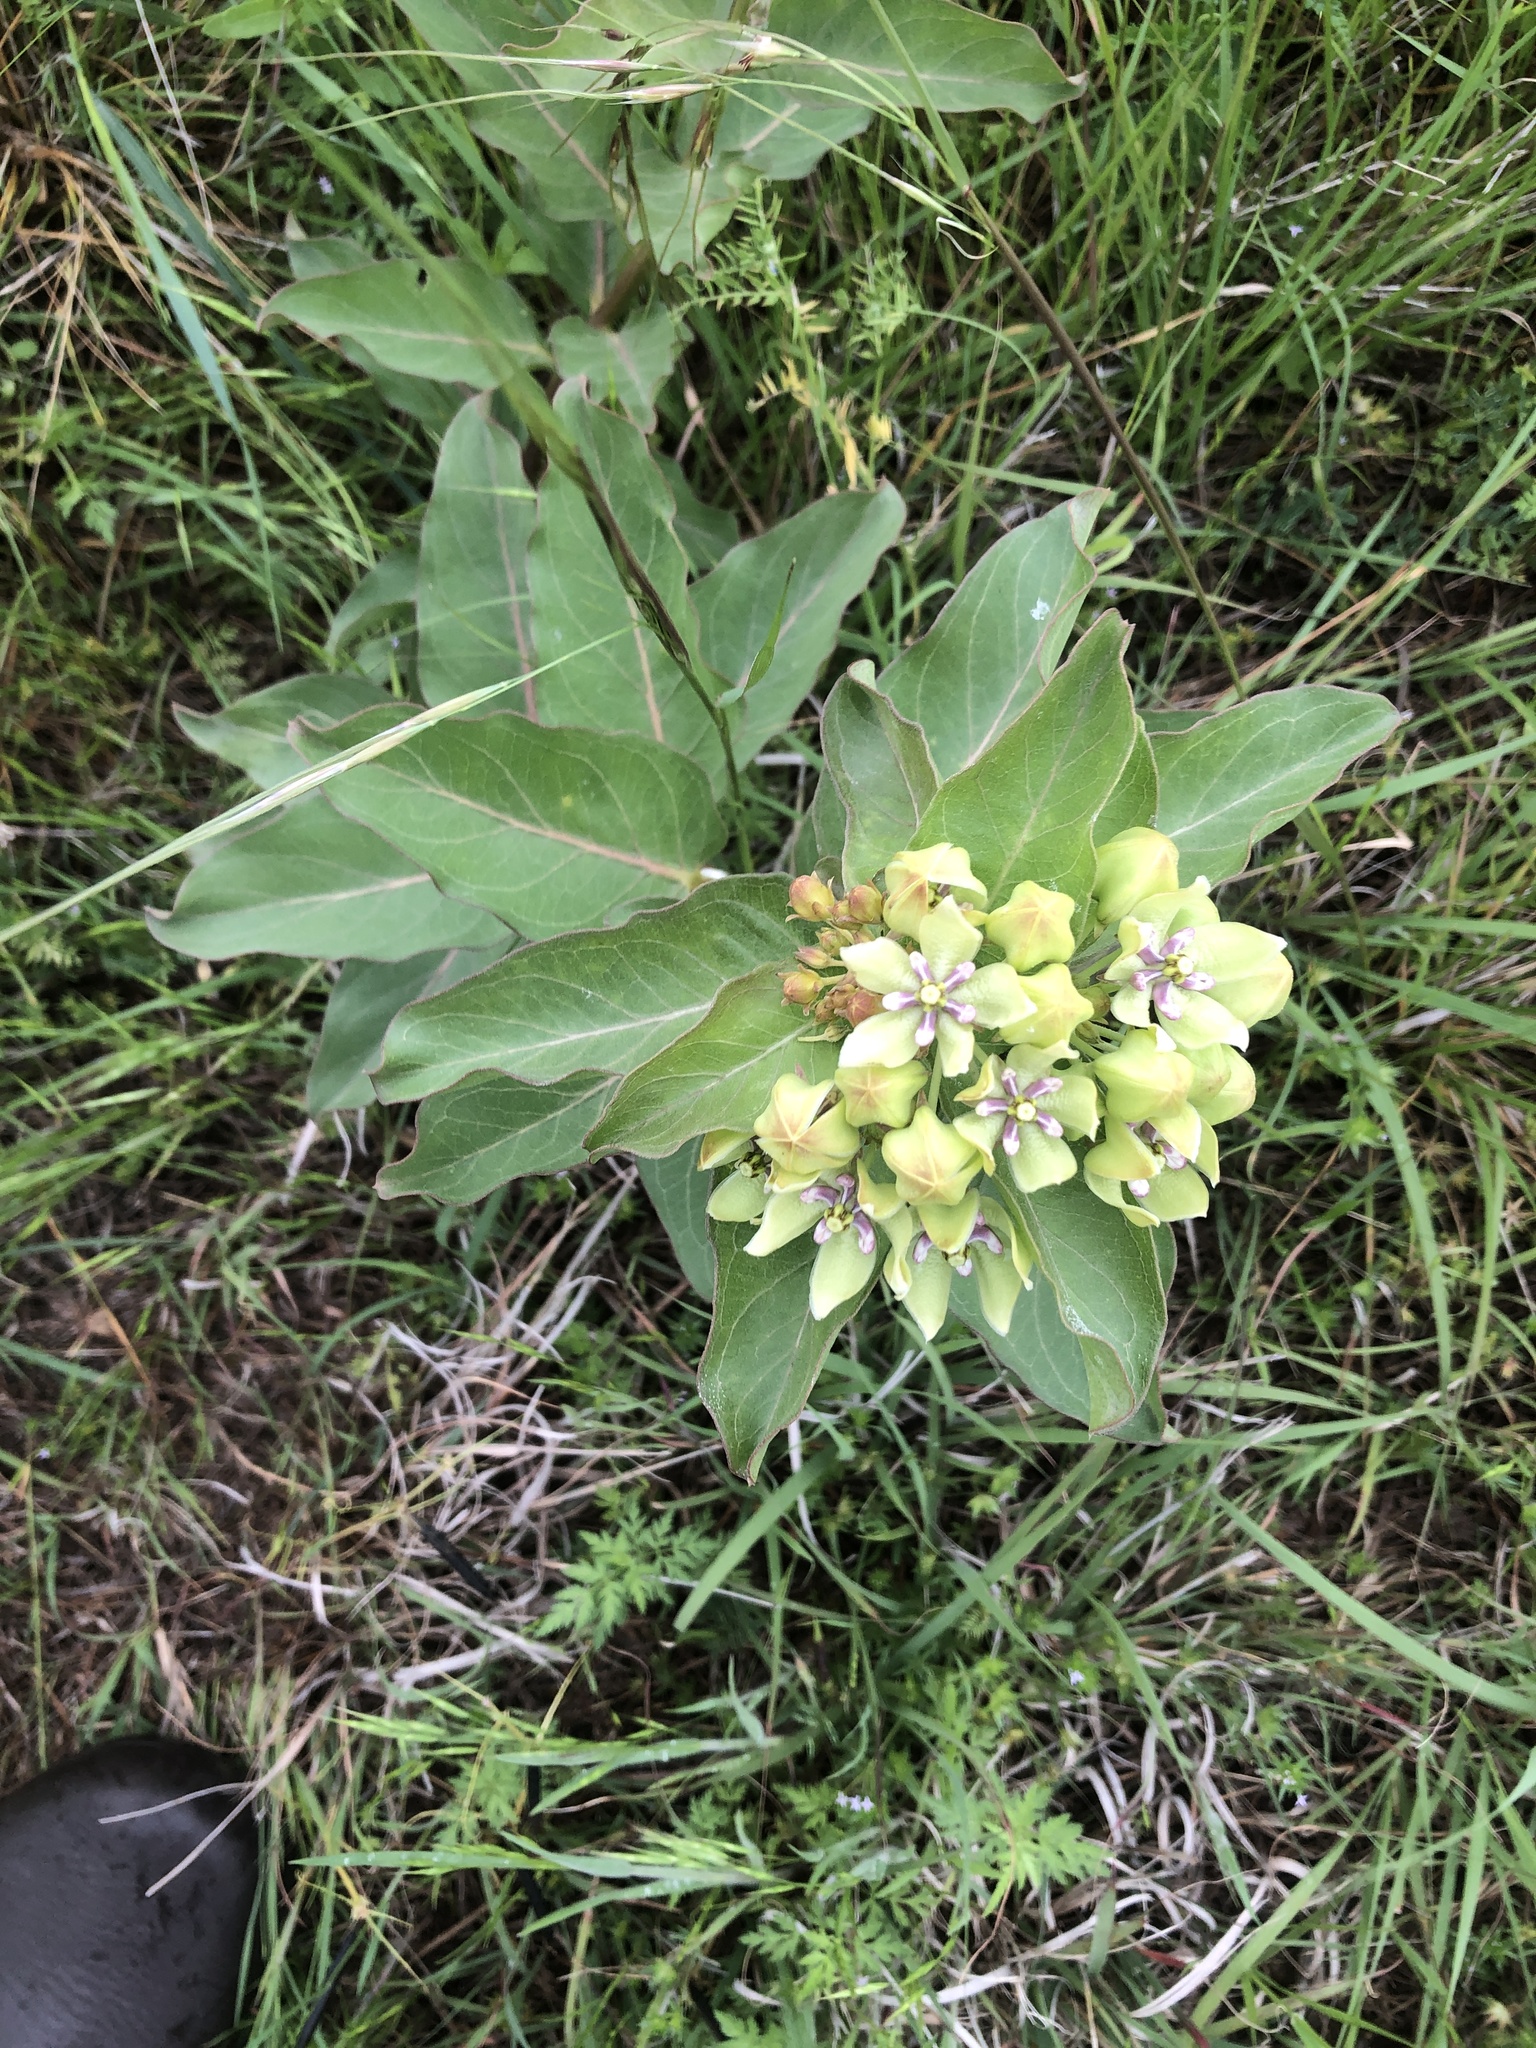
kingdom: Plantae
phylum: Tracheophyta
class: Magnoliopsida
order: Gentianales
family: Apocynaceae
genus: Asclepias
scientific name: Asclepias viridis
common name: Antelope-horns
